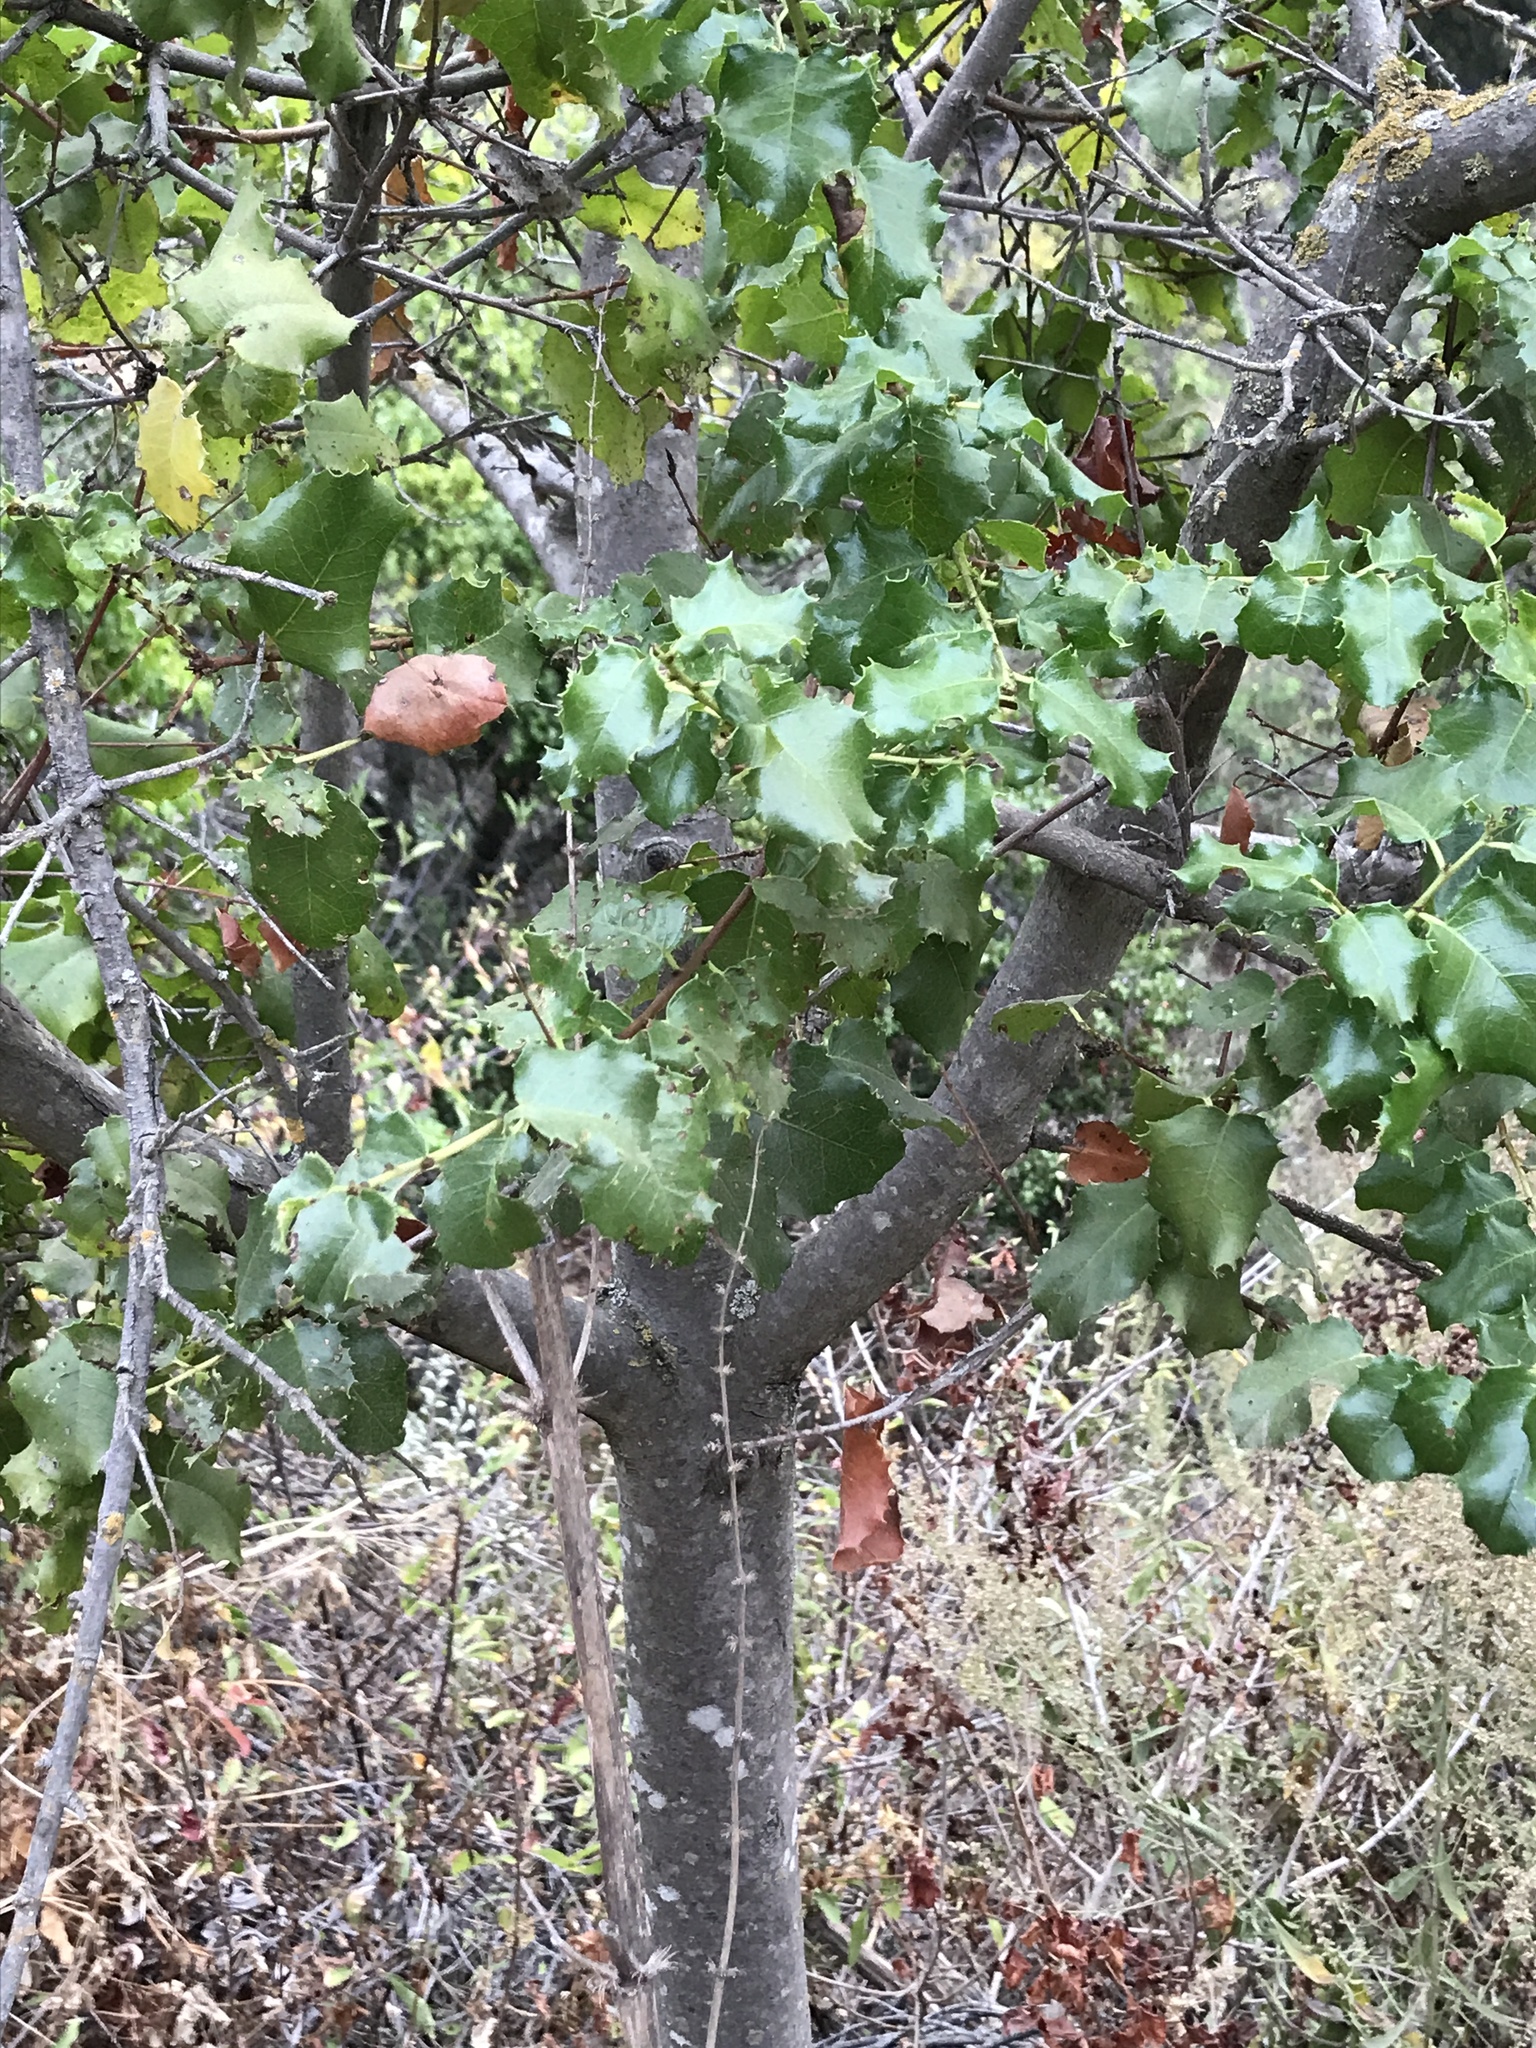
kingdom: Plantae
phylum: Tracheophyta
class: Magnoliopsida
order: Rosales
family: Rosaceae
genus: Prunus
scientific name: Prunus ilicifolia
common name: Hollyleaf cherry
